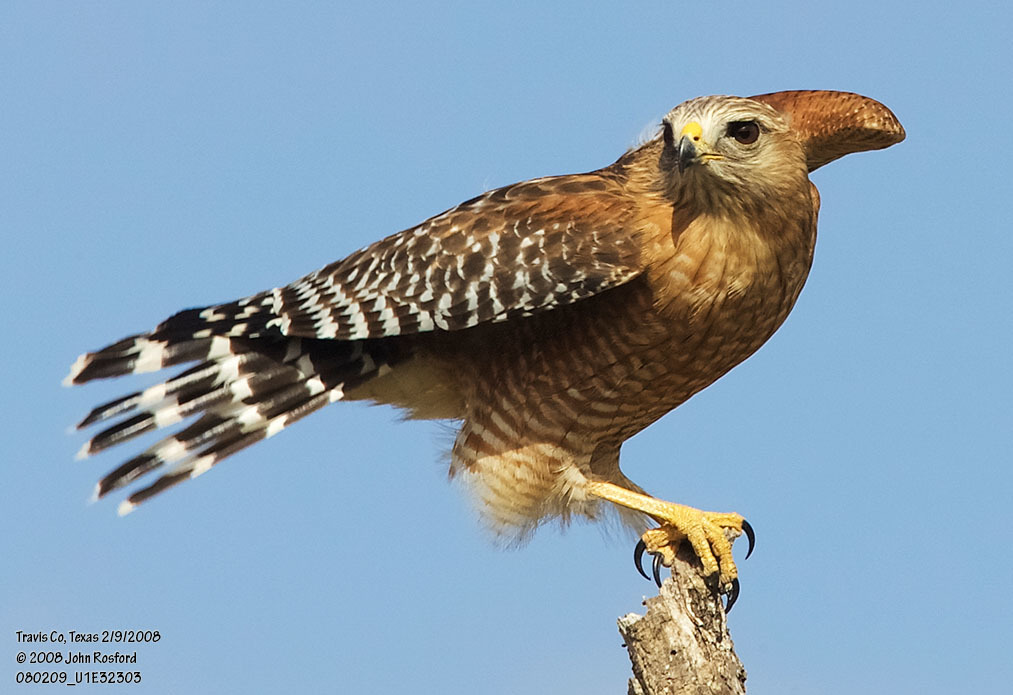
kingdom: Animalia
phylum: Chordata
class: Aves
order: Accipitriformes
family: Accipitridae
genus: Buteo
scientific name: Buteo lineatus
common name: Red-shouldered hawk
